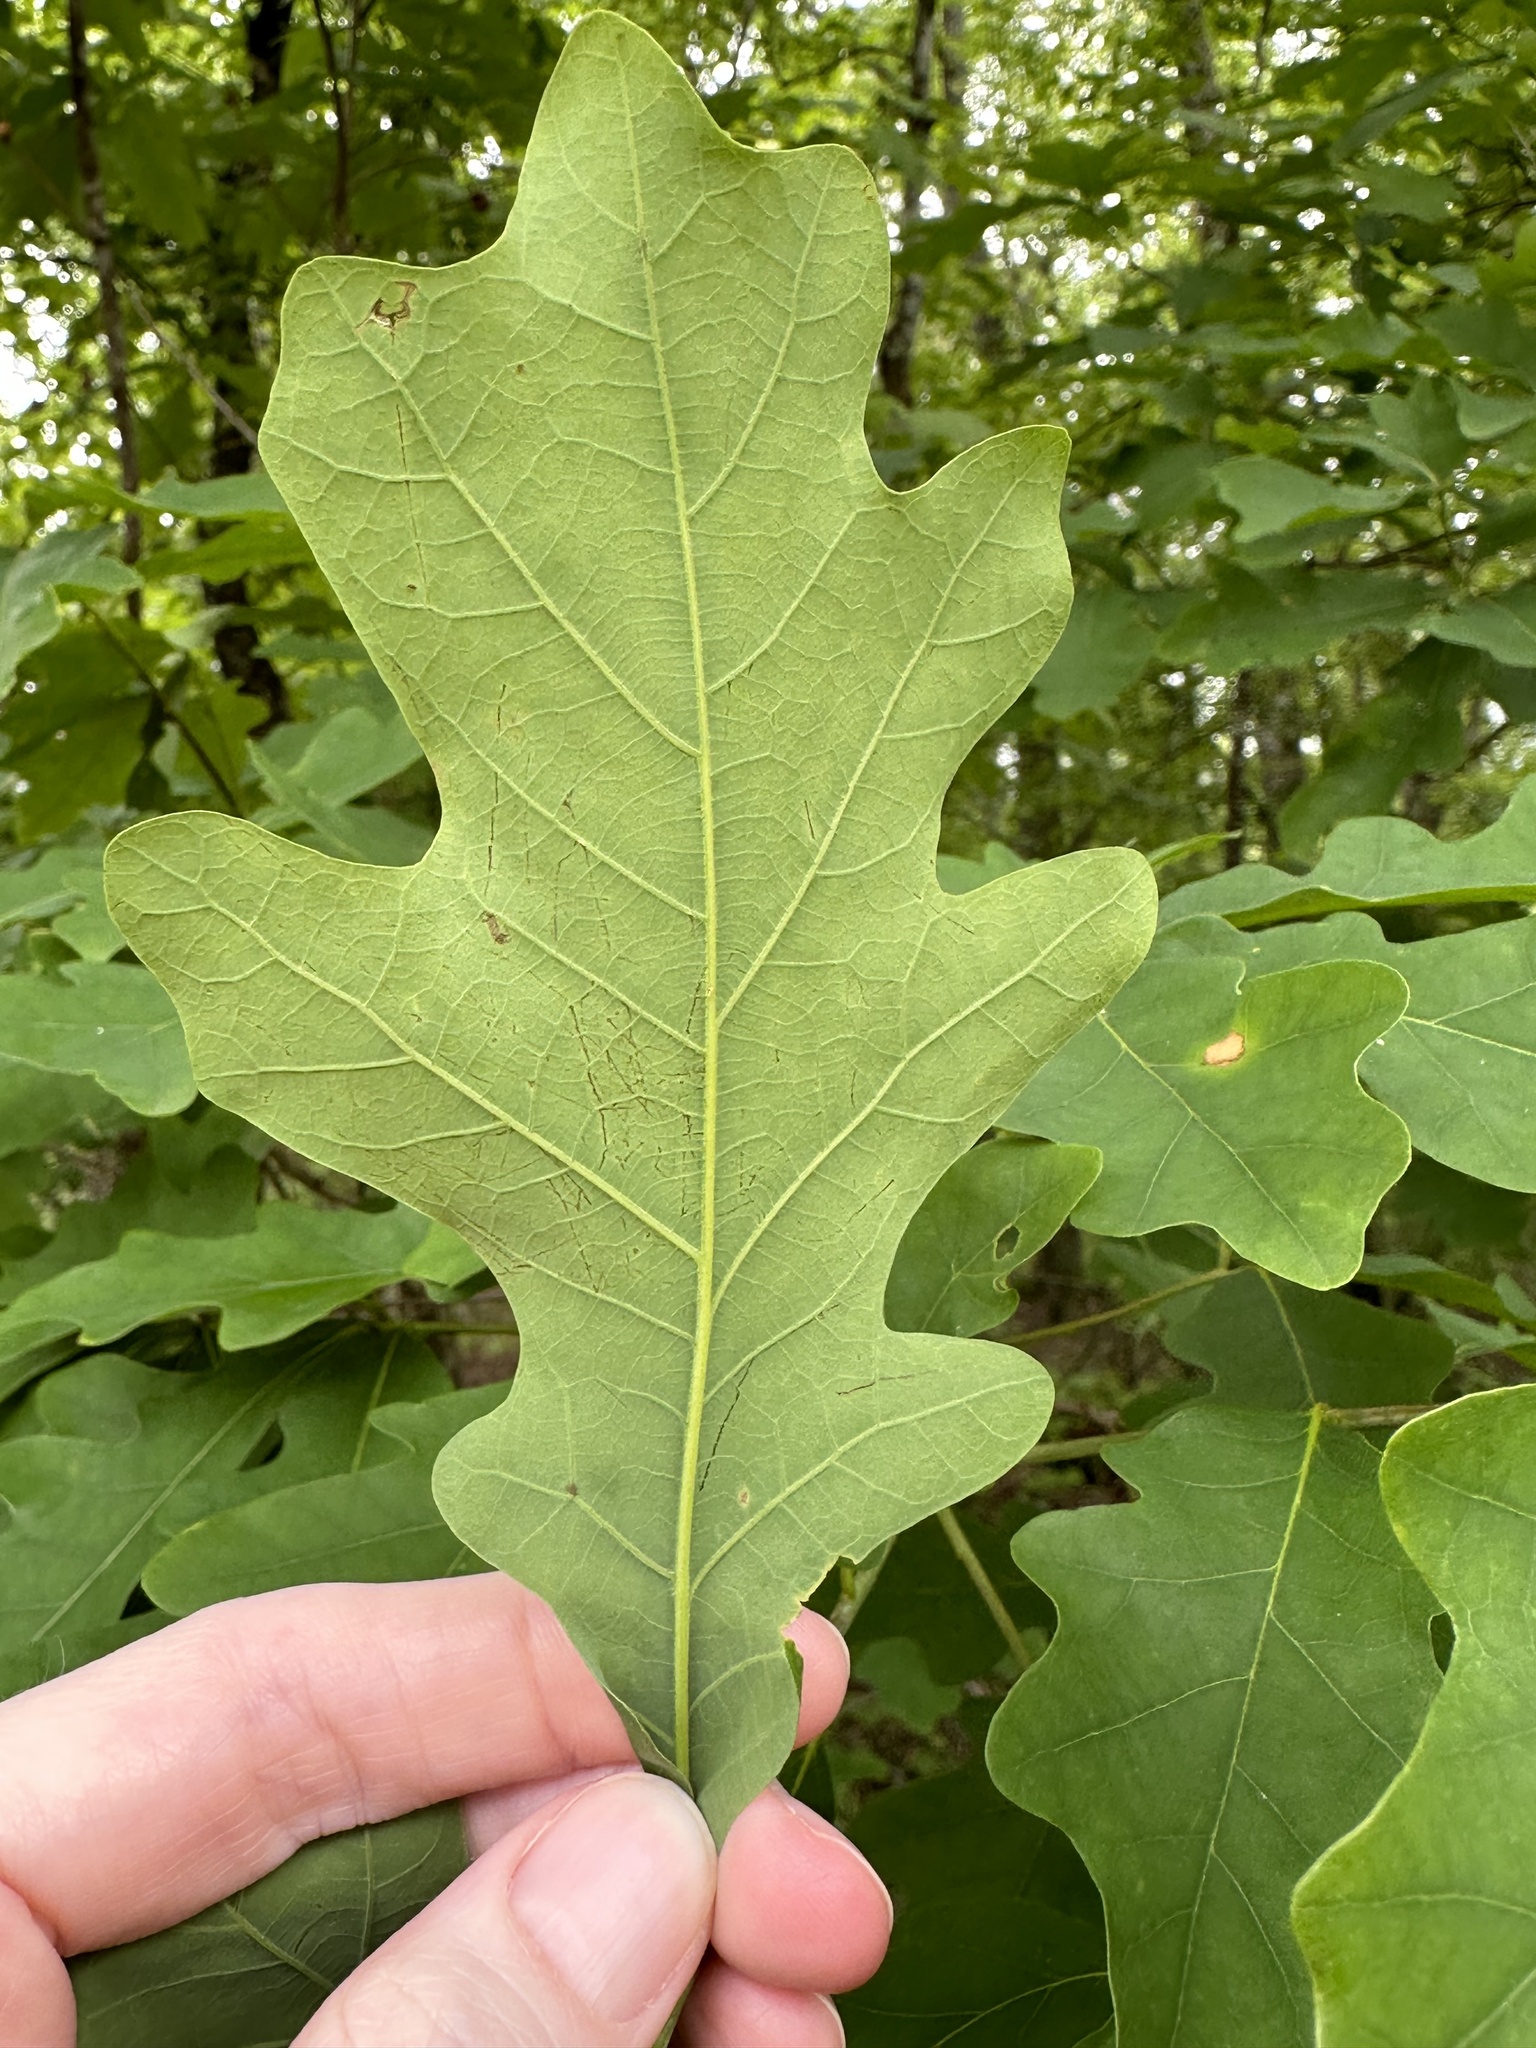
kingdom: Plantae
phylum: Tracheophyta
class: Magnoliopsida
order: Fagales
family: Fagaceae
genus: Quercus
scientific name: Quercus alba
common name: White oak
